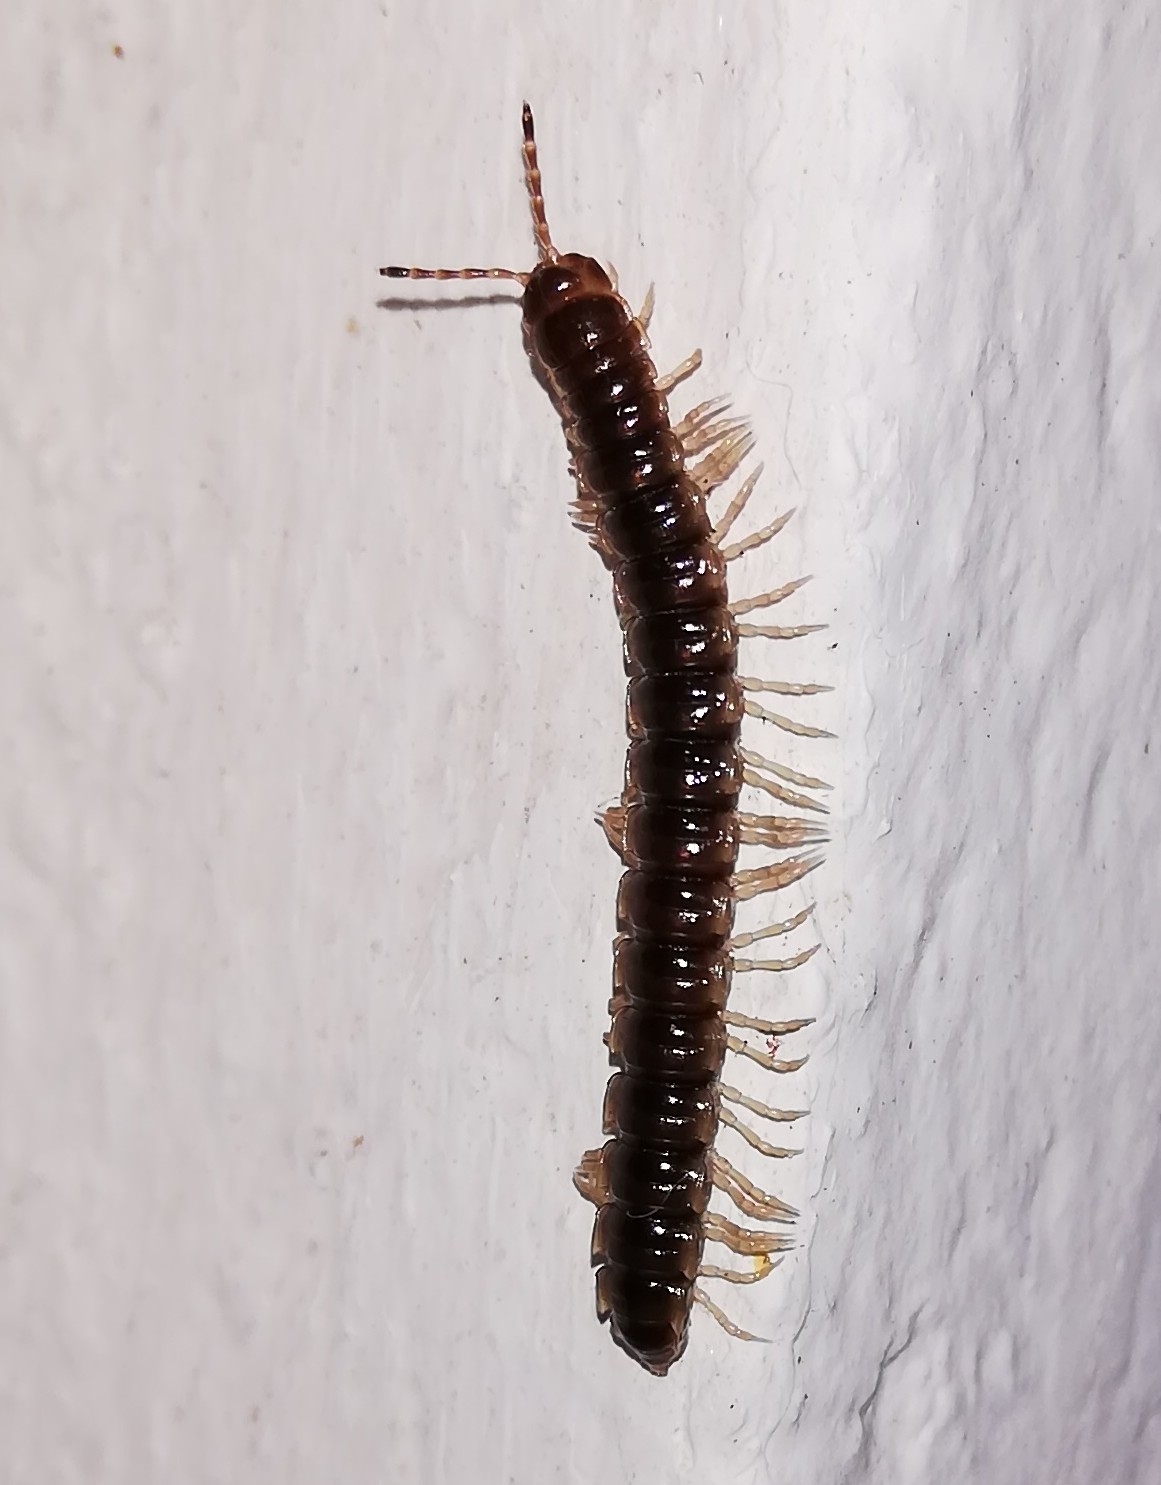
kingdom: Animalia
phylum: Arthropoda
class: Diplopoda
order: Polydesmida
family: Paradoxosomatidae
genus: Oxidus
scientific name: Oxidus gracilis
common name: Greenhouse millipede
